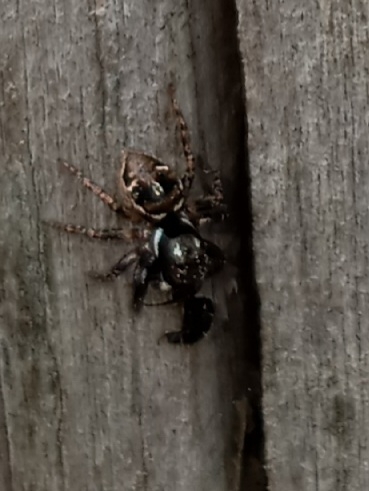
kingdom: Animalia
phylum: Arthropoda
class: Arachnida
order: Araneae
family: Salticidae
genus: Anasaitis
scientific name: Anasaitis canosa
